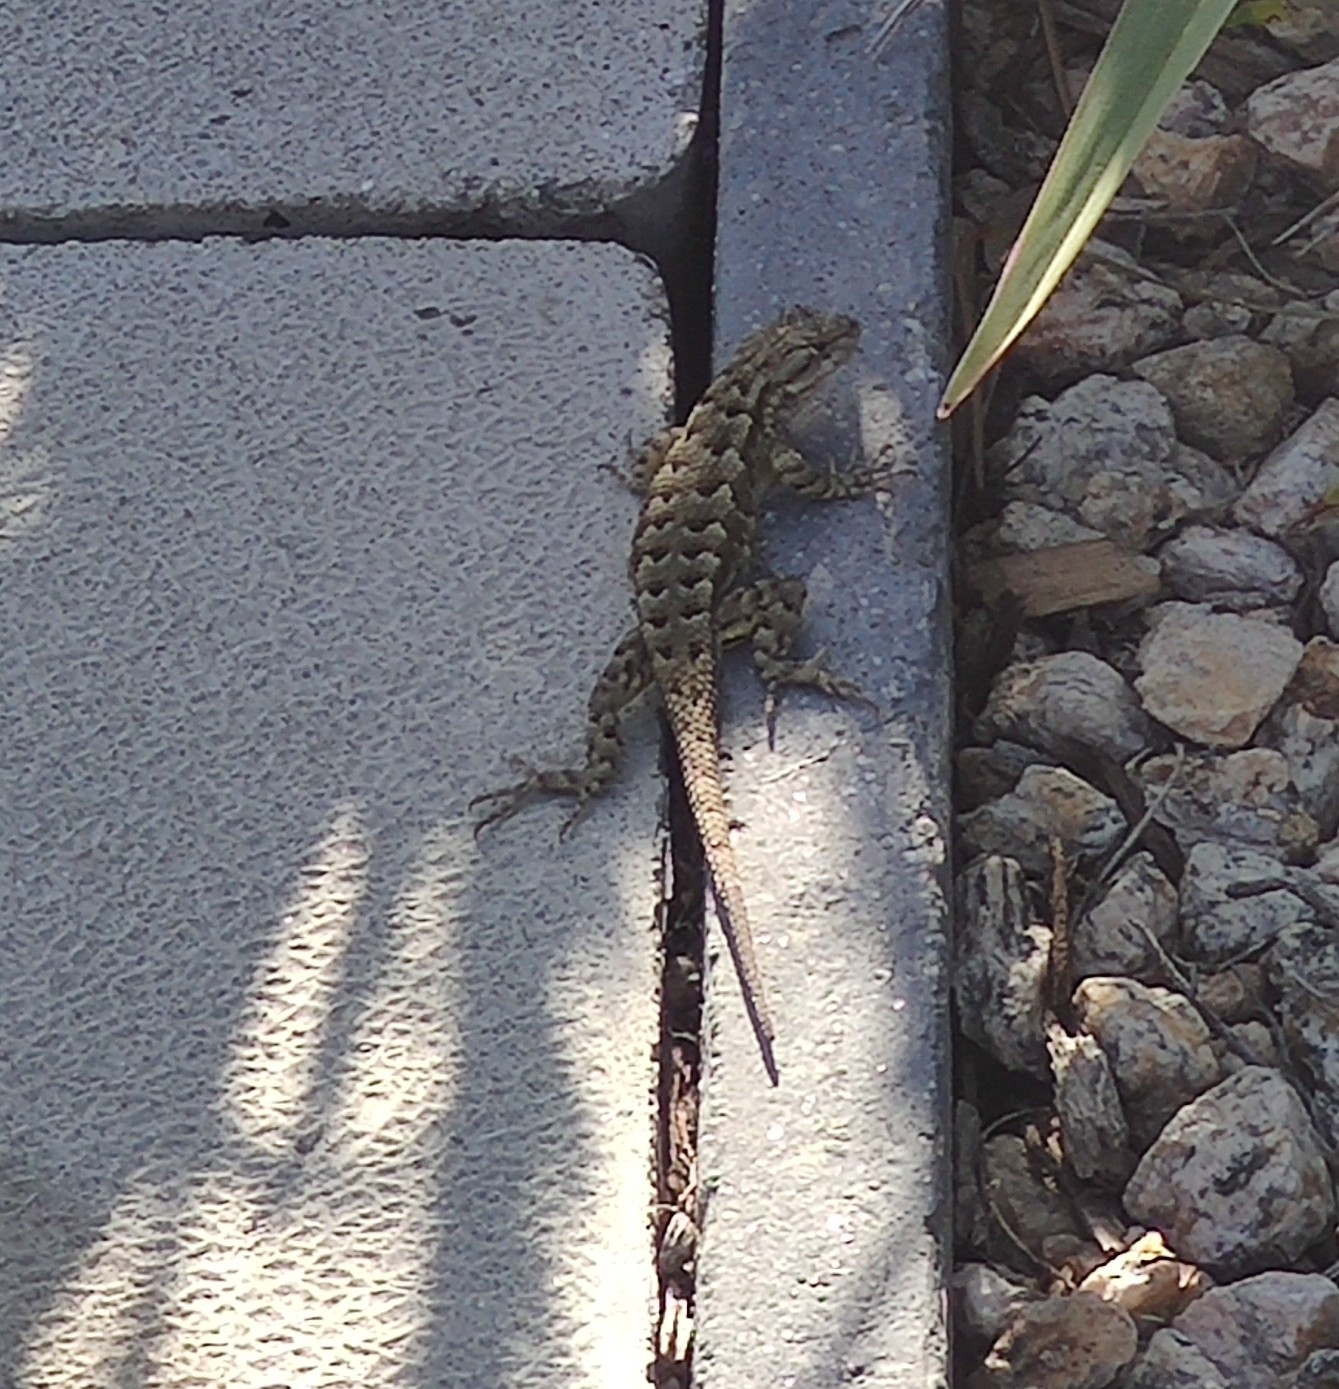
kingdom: Animalia
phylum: Chordata
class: Squamata
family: Phrynosomatidae
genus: Sceloporus
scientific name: Sceloporus occidentalis
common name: Western fence lizard
